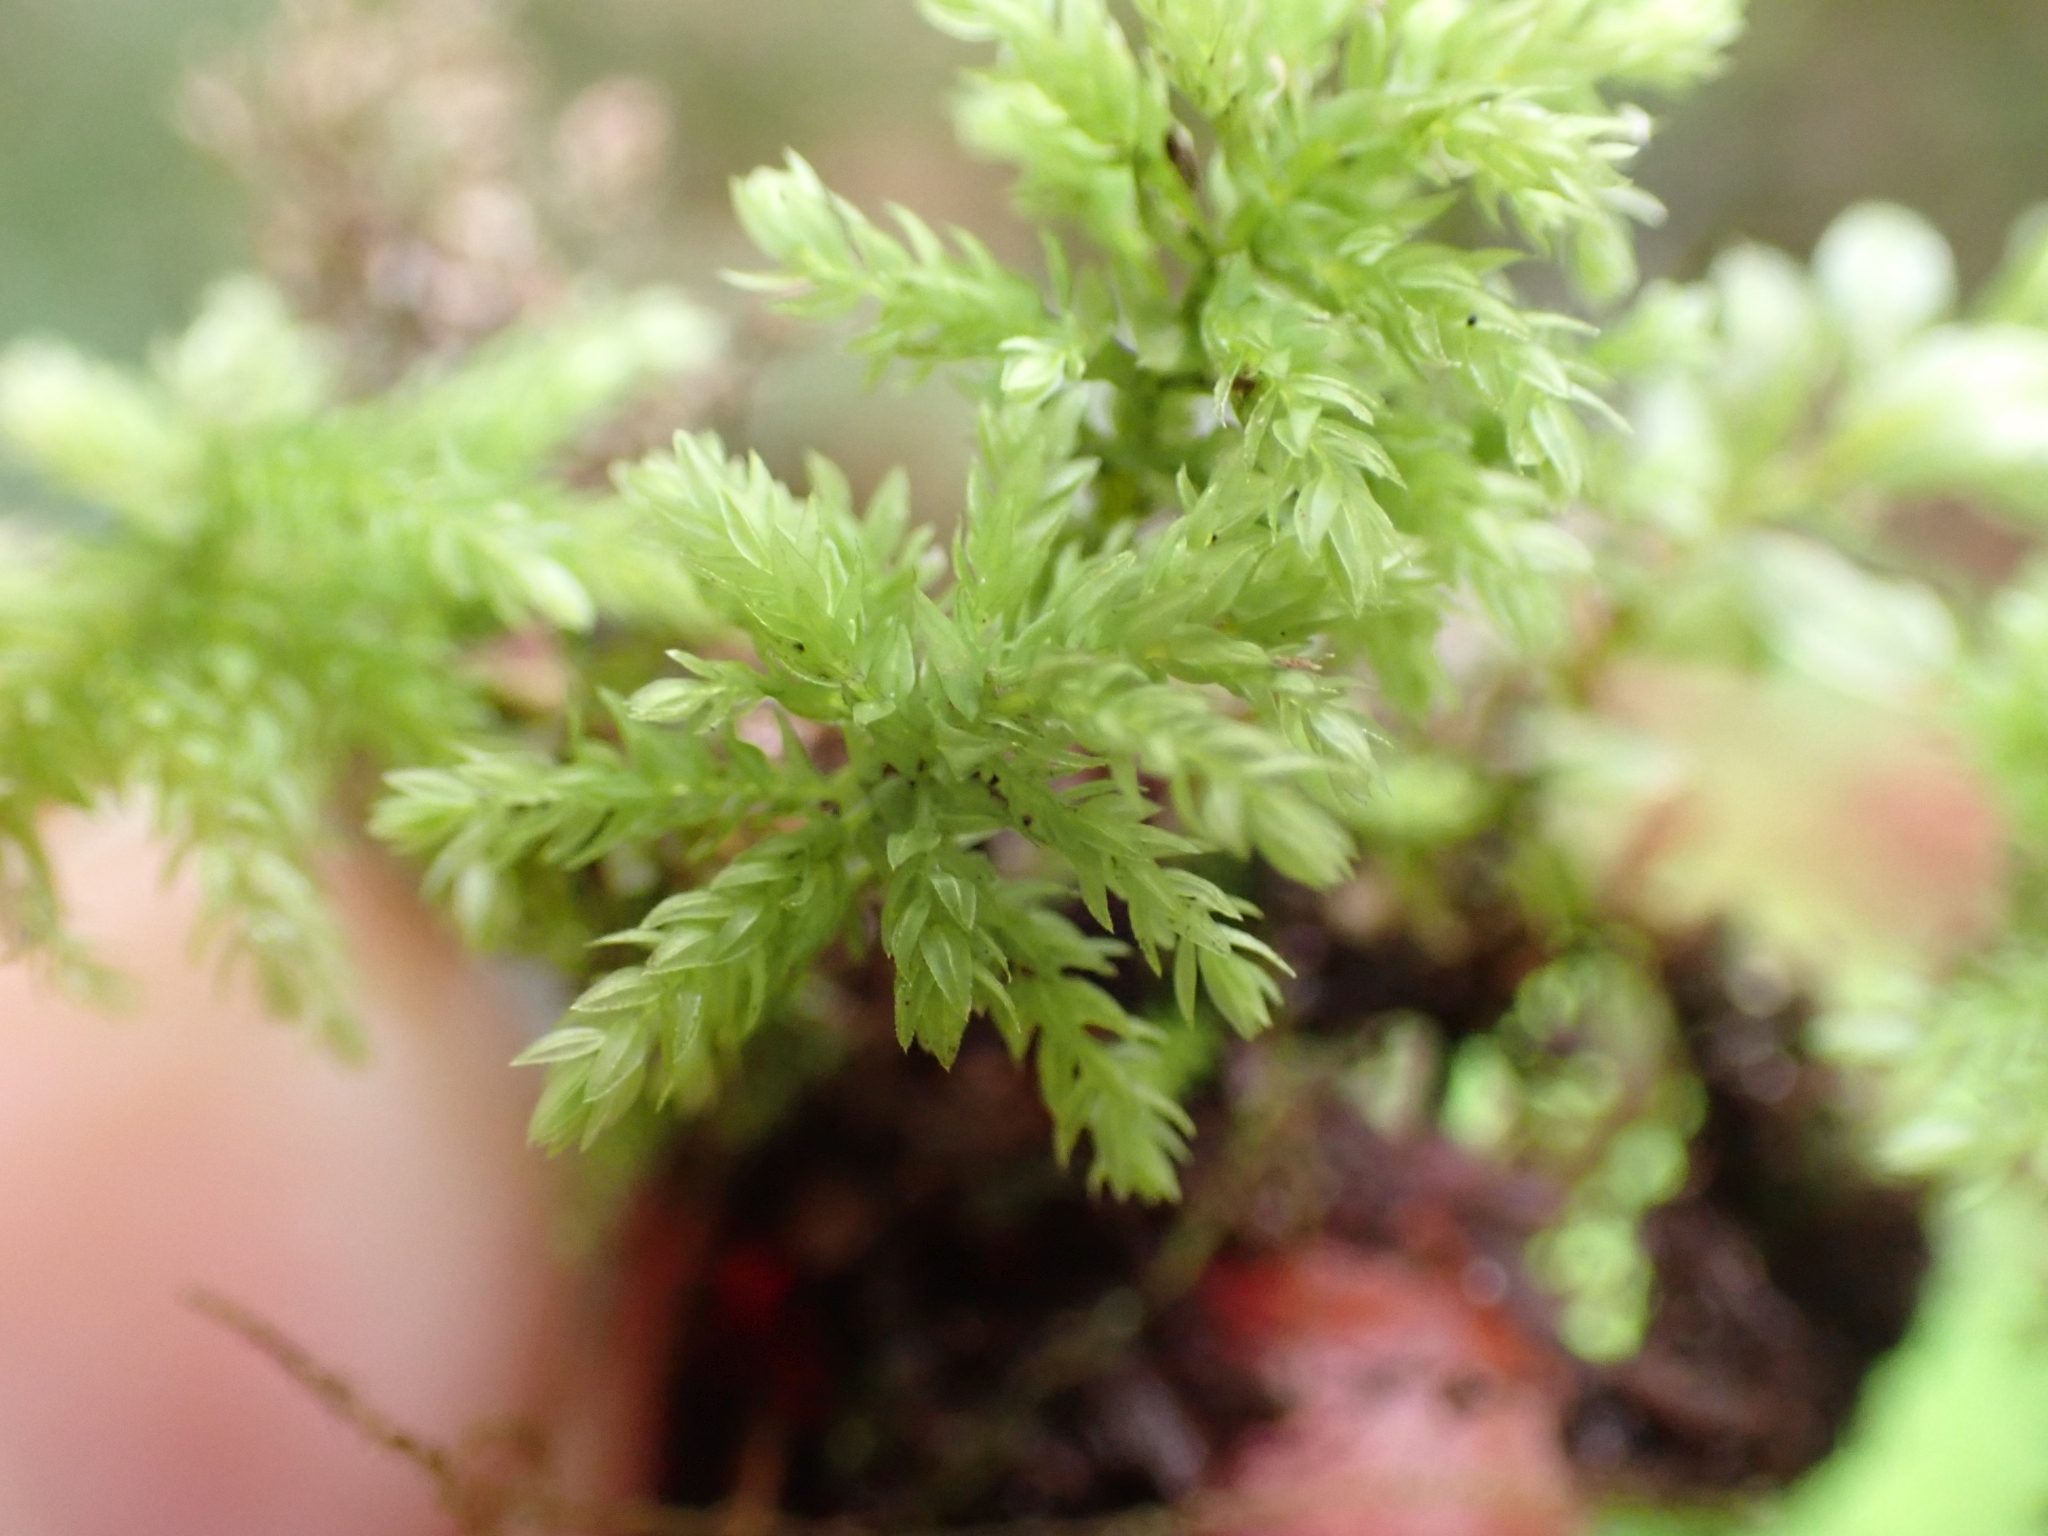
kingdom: Plantae
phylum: Bryophyta
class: Bryopsida
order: Bryales
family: Mniaceae
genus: Leucolepis
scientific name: Leucolepis acanthoneura
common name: Leucolepis umbrella moss
